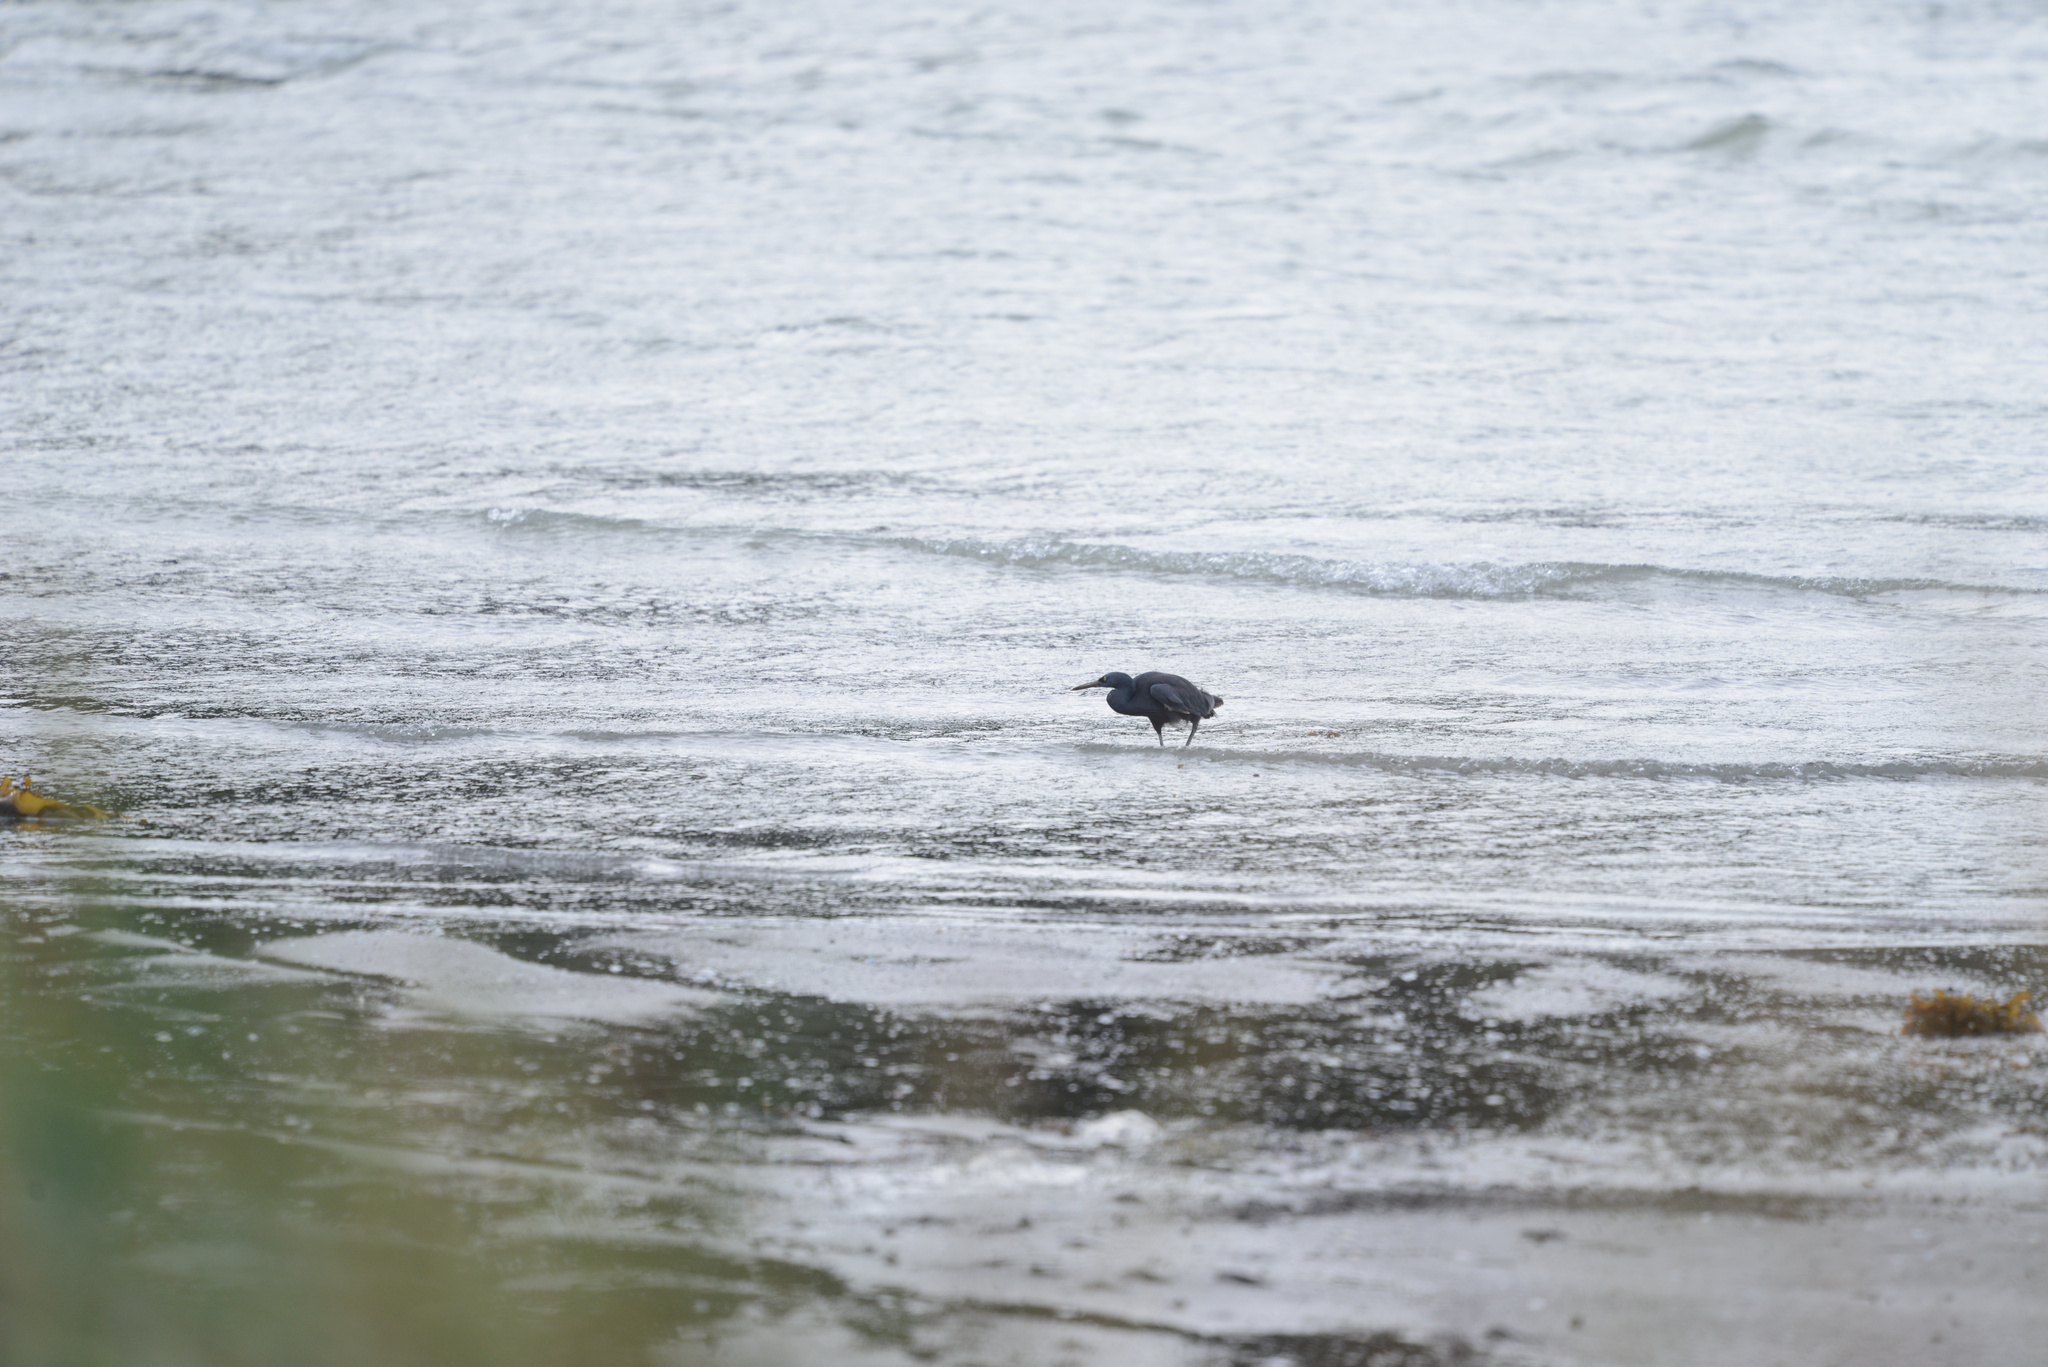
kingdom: Animalia
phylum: Chordata
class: Aves
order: Pelecaniformes
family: Ardeidae
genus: Egretta
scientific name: Egretta sacra
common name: Pacific reef heron
